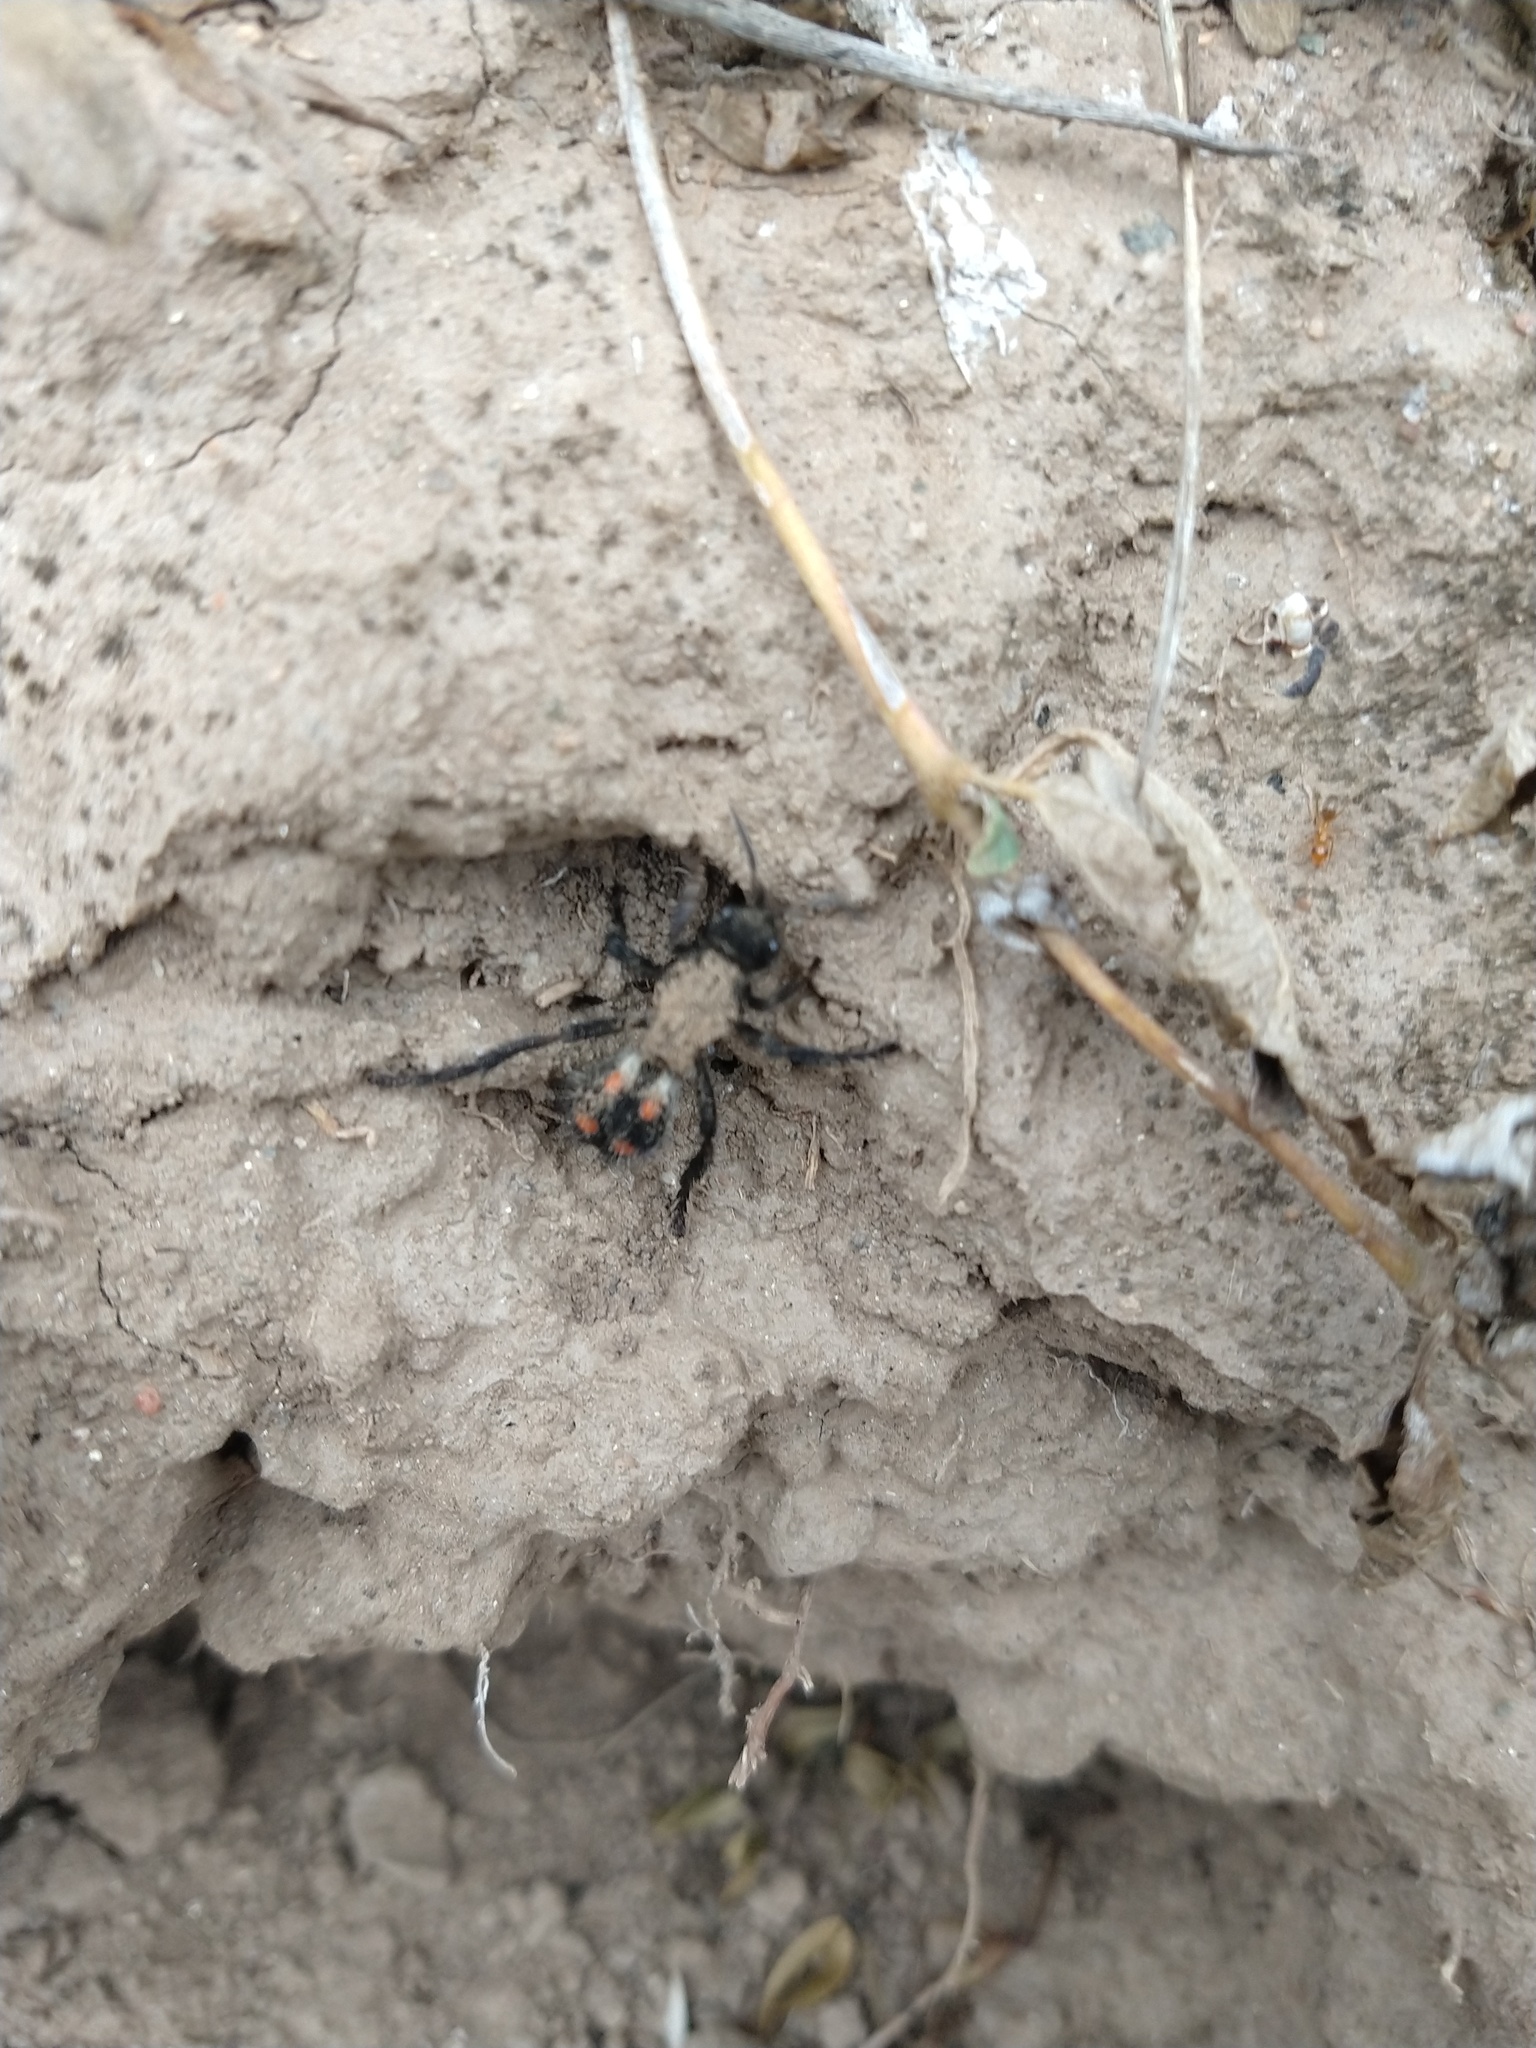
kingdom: Animalia
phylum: Arthropoda
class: Insecta
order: Hymenoptera
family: Mutillidae
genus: Traumatomutilla
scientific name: Traumatomutilla
